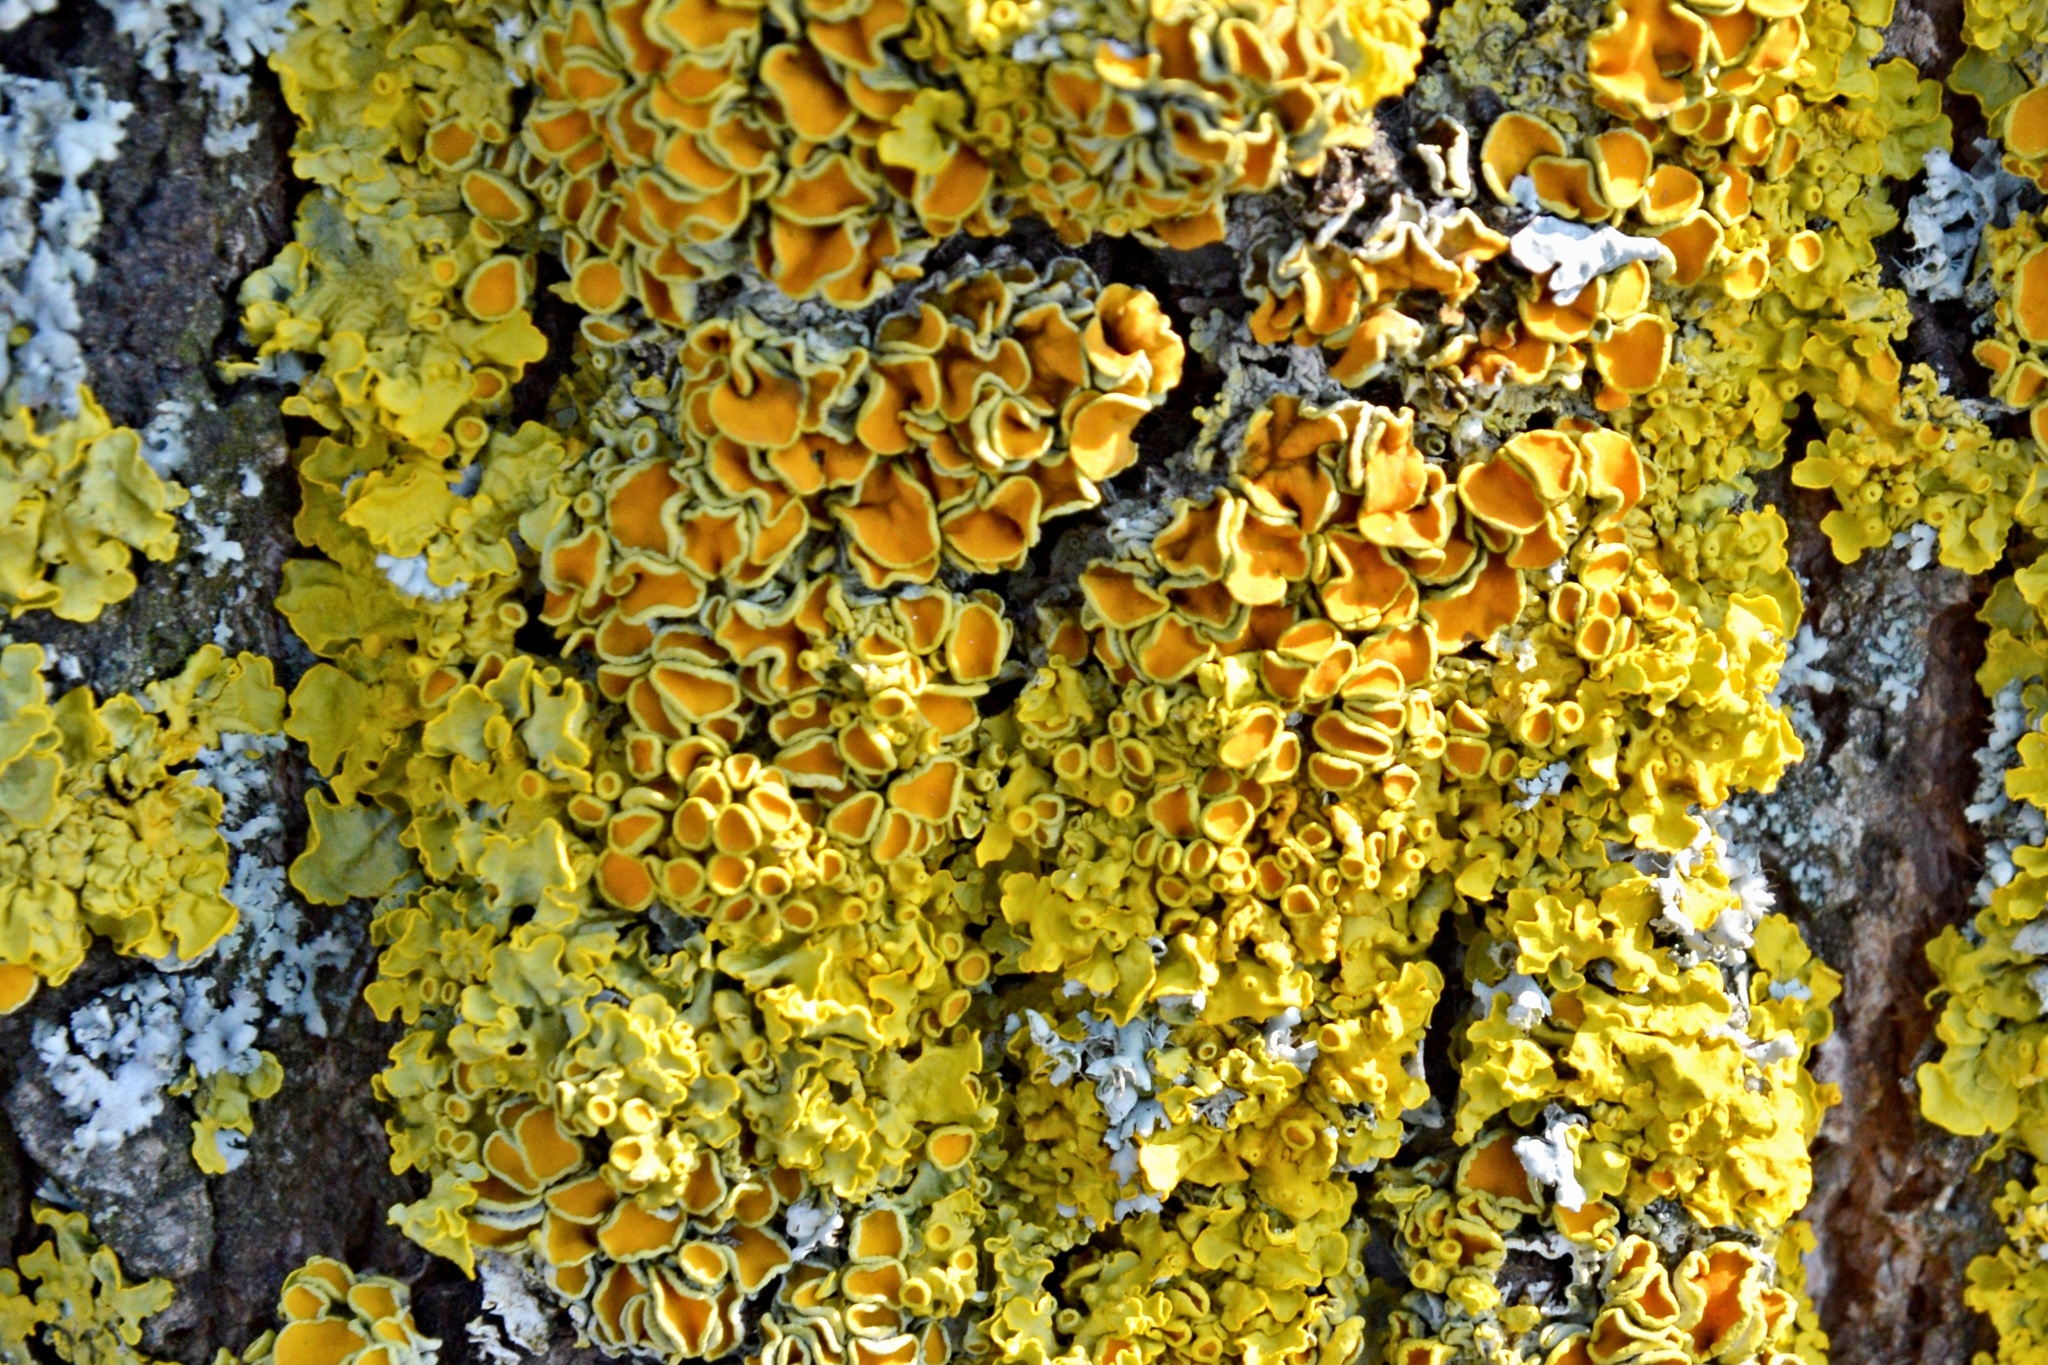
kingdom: Fungi
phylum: Ascomycota
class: Lecanoromycetes
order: Teloschistales
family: Teloschistaceae
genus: Xanthoria
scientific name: Xanthoria parietina
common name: Common orange lichen
